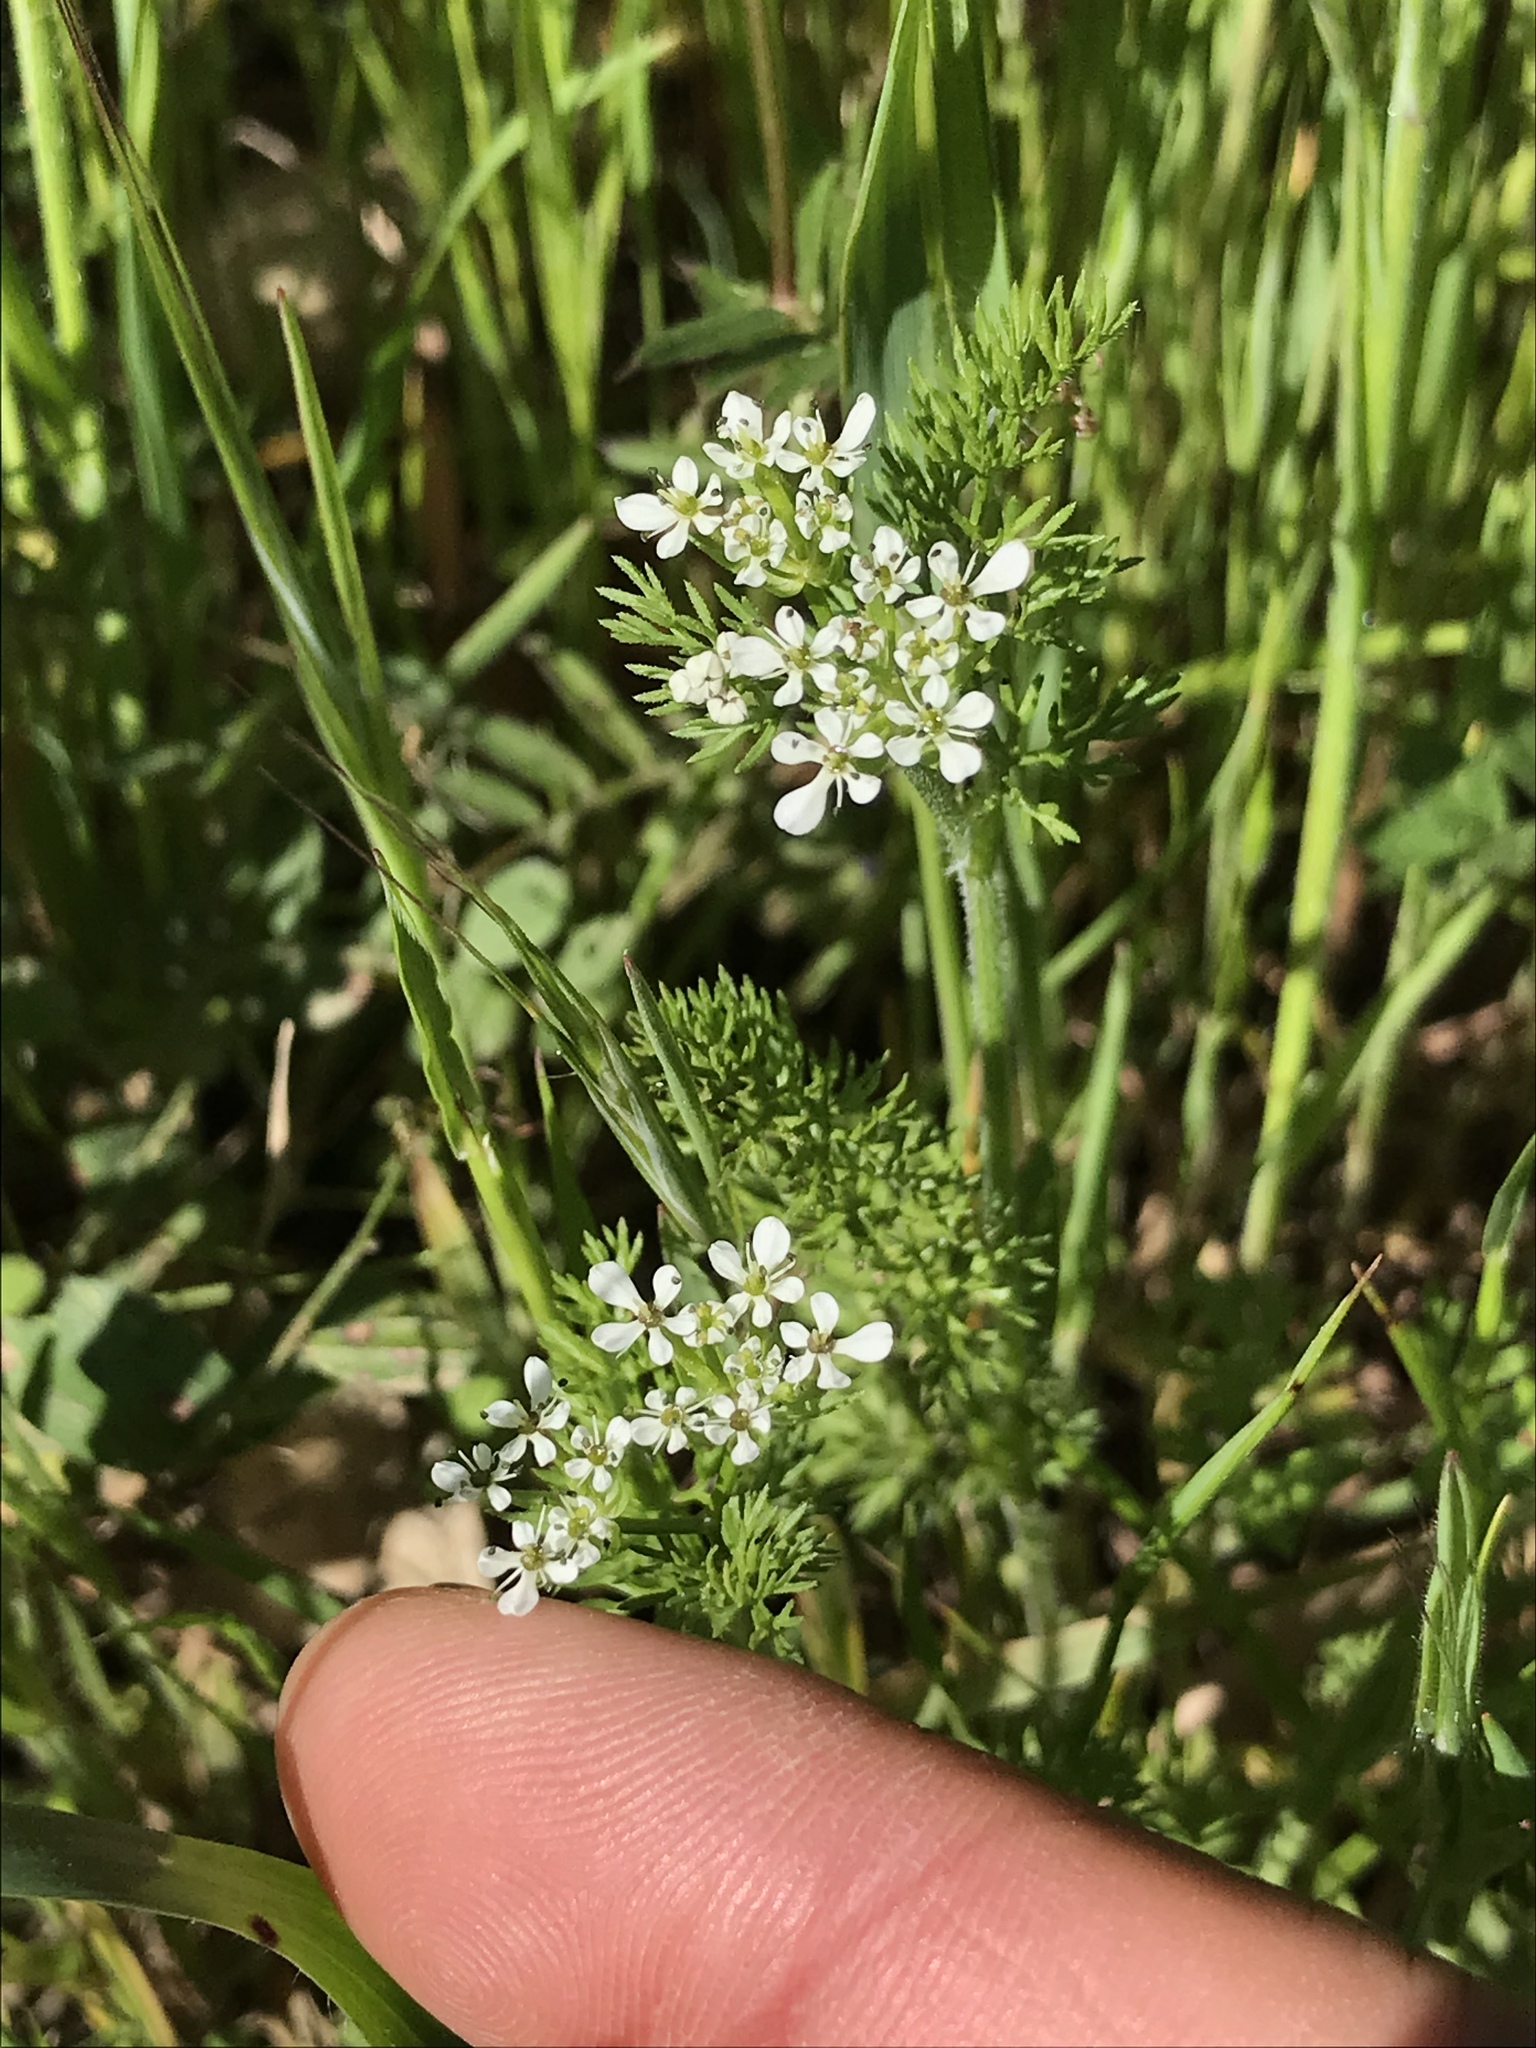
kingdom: Plantae
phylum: Tracheophyta
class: Magnoliopsida
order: Apiales
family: Apiaceae
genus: Scandix
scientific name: Scandix pecten-veneris
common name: Shepherd's-needle
